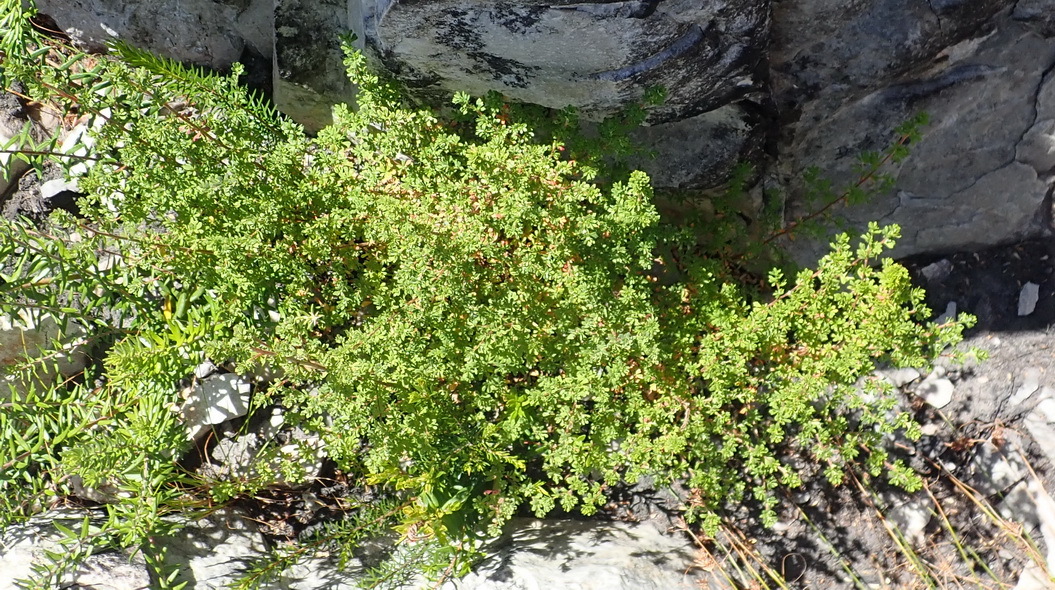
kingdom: Plantae
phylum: Tracheophyta
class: Magnoliopsida
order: Rosales
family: Rosaceae
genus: Cliffortia
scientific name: Cliffortia serpyllifolia
